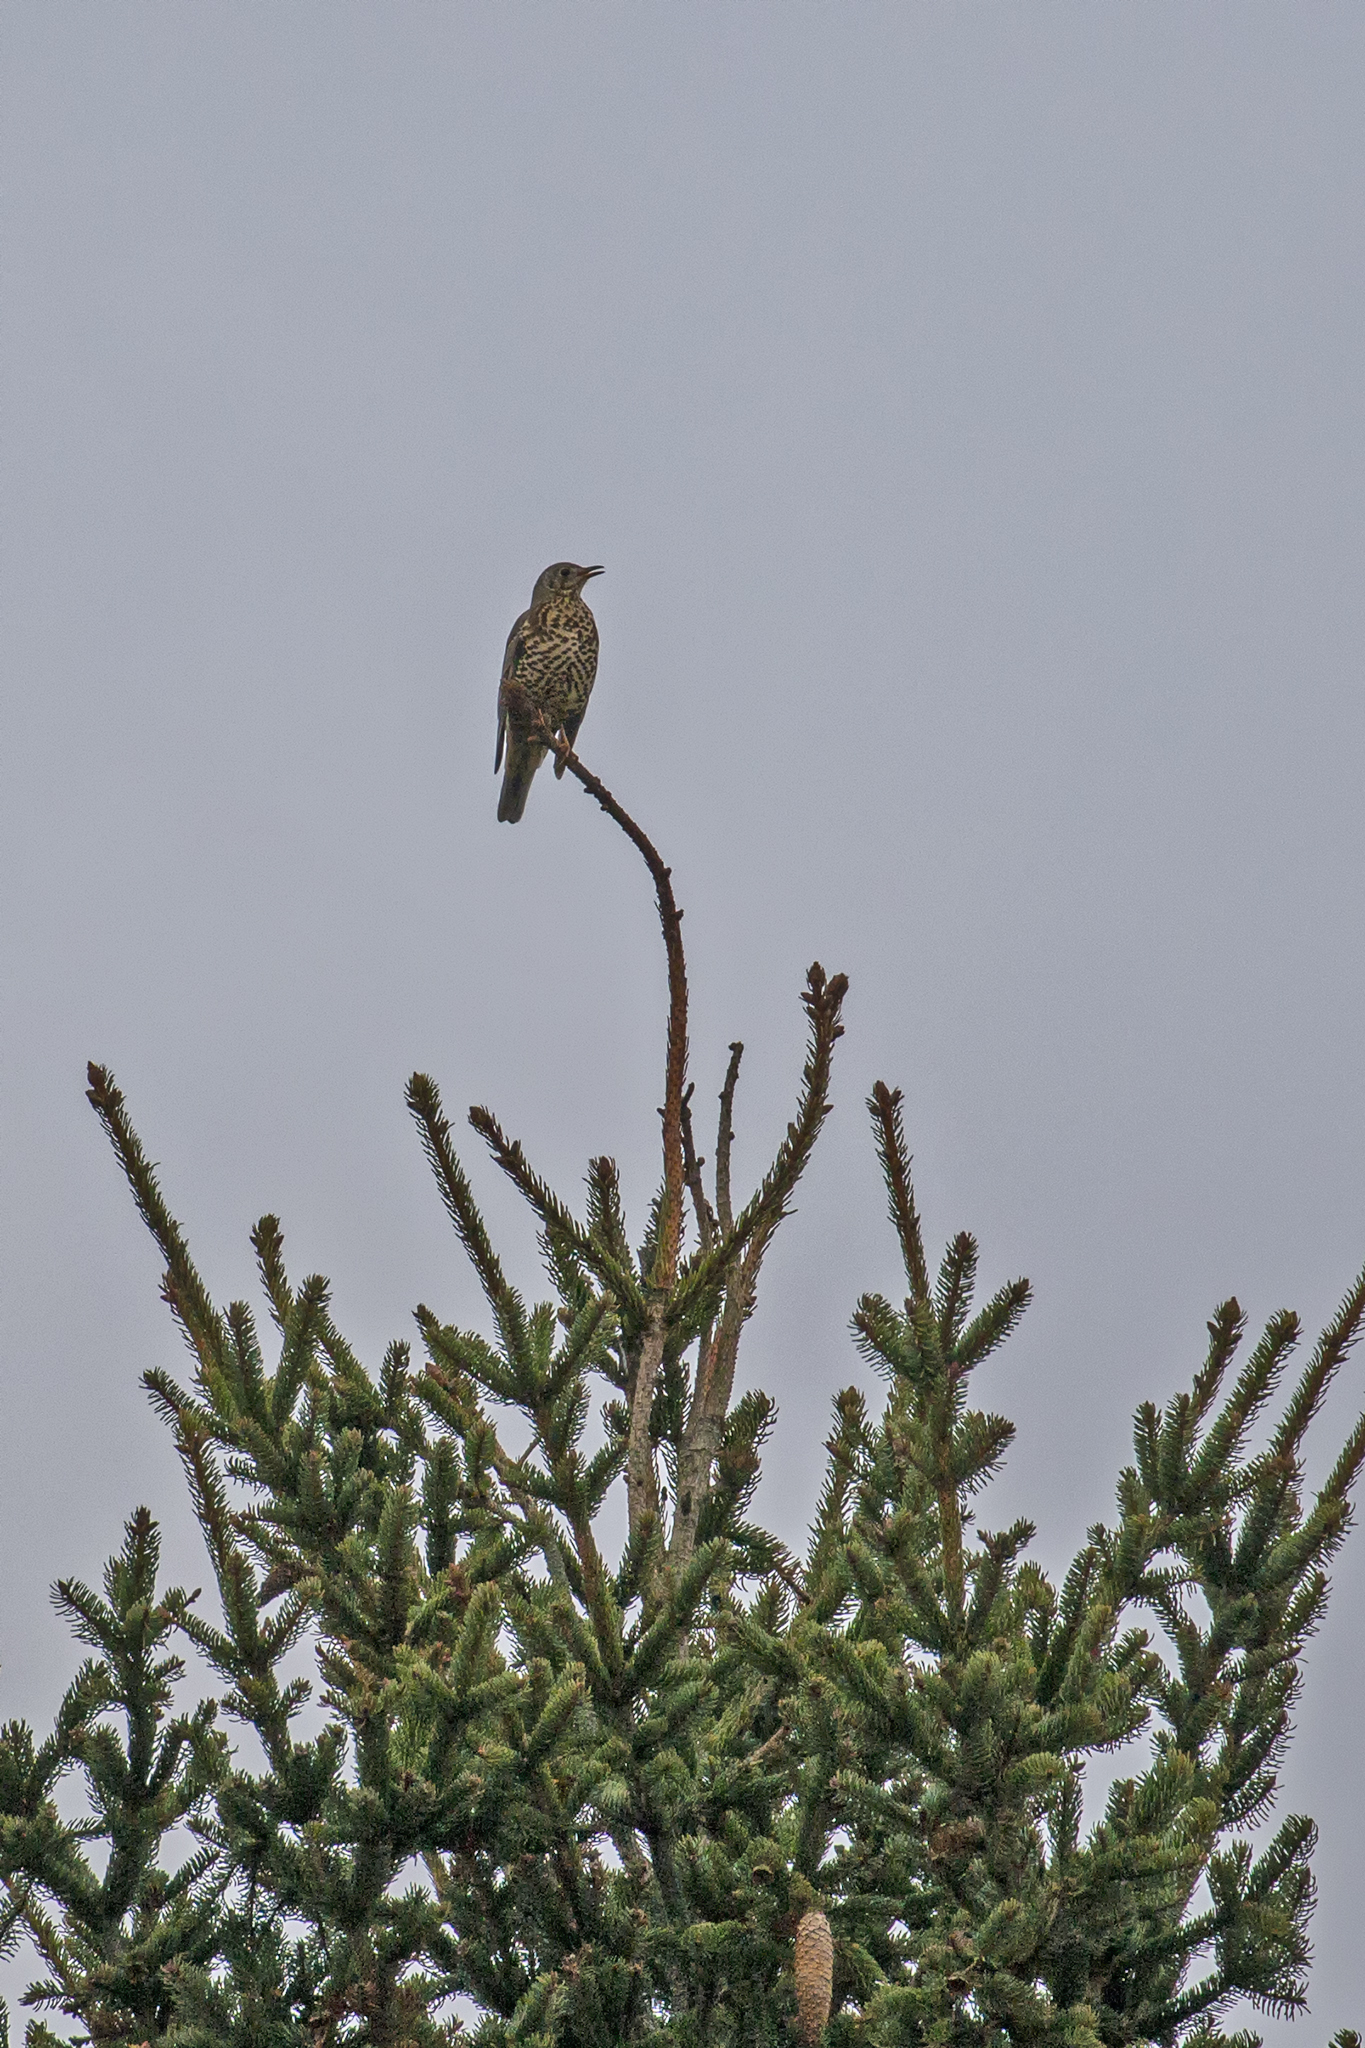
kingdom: Animalia
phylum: Chordata
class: Aves
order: Passeriformes
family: Turdidae
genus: Turdus
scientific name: Turdus viscivorus
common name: Mistle thrush
